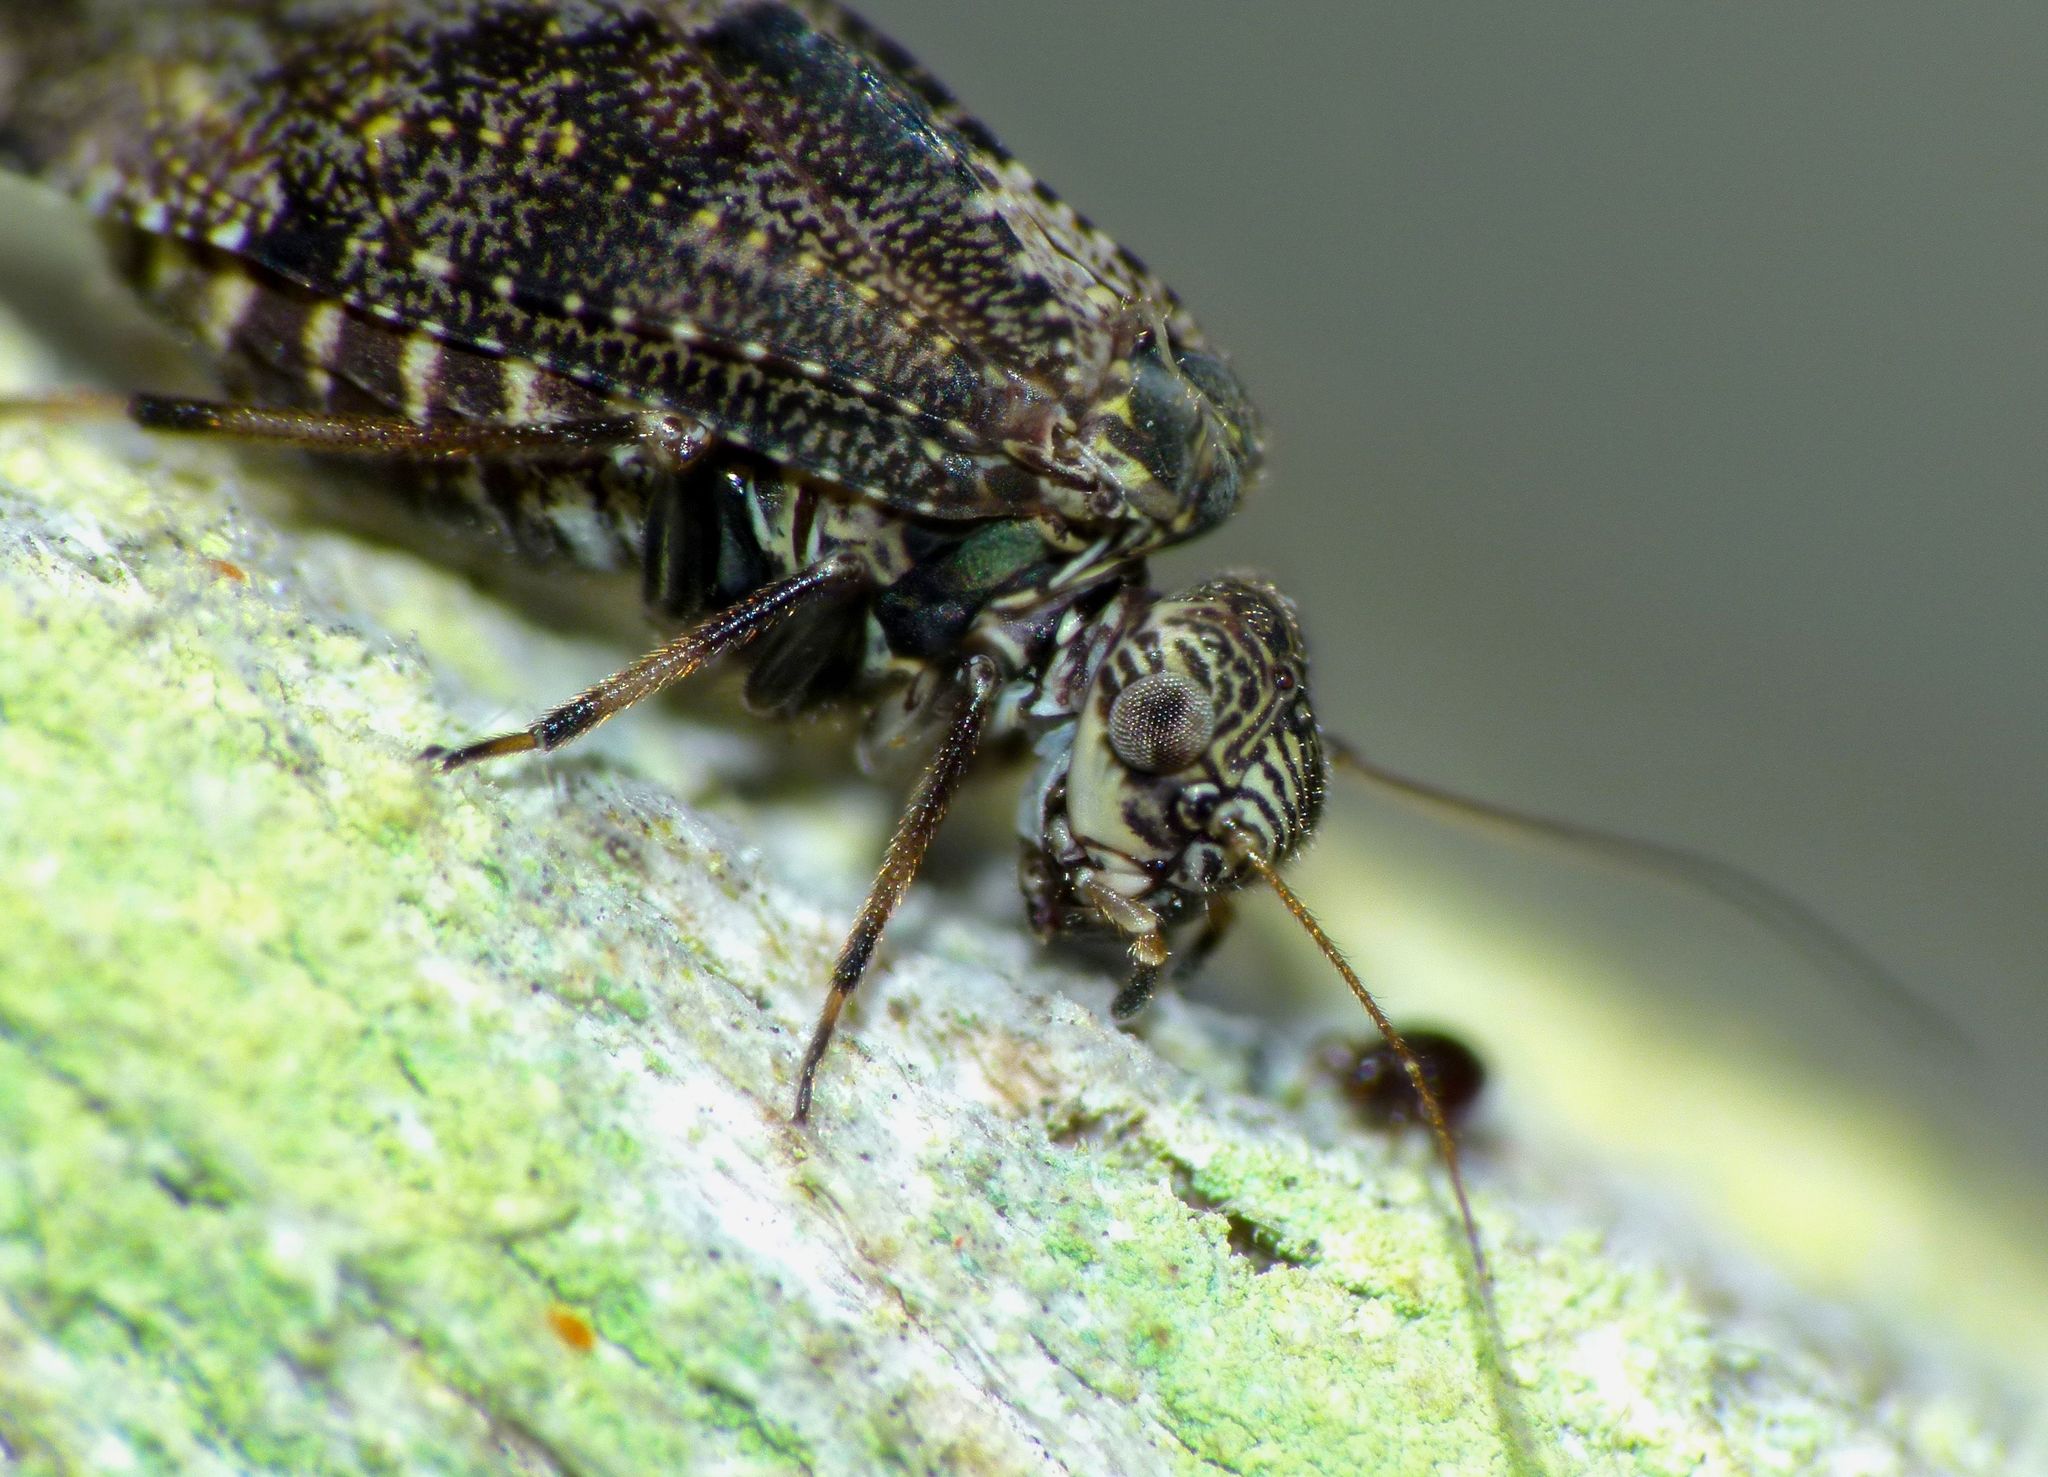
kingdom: Animalia
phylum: Arthropoda
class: Insecta
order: Psocodea
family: Myopsocidae
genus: Nimbopsocus
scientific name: Nimbopsocus australis
